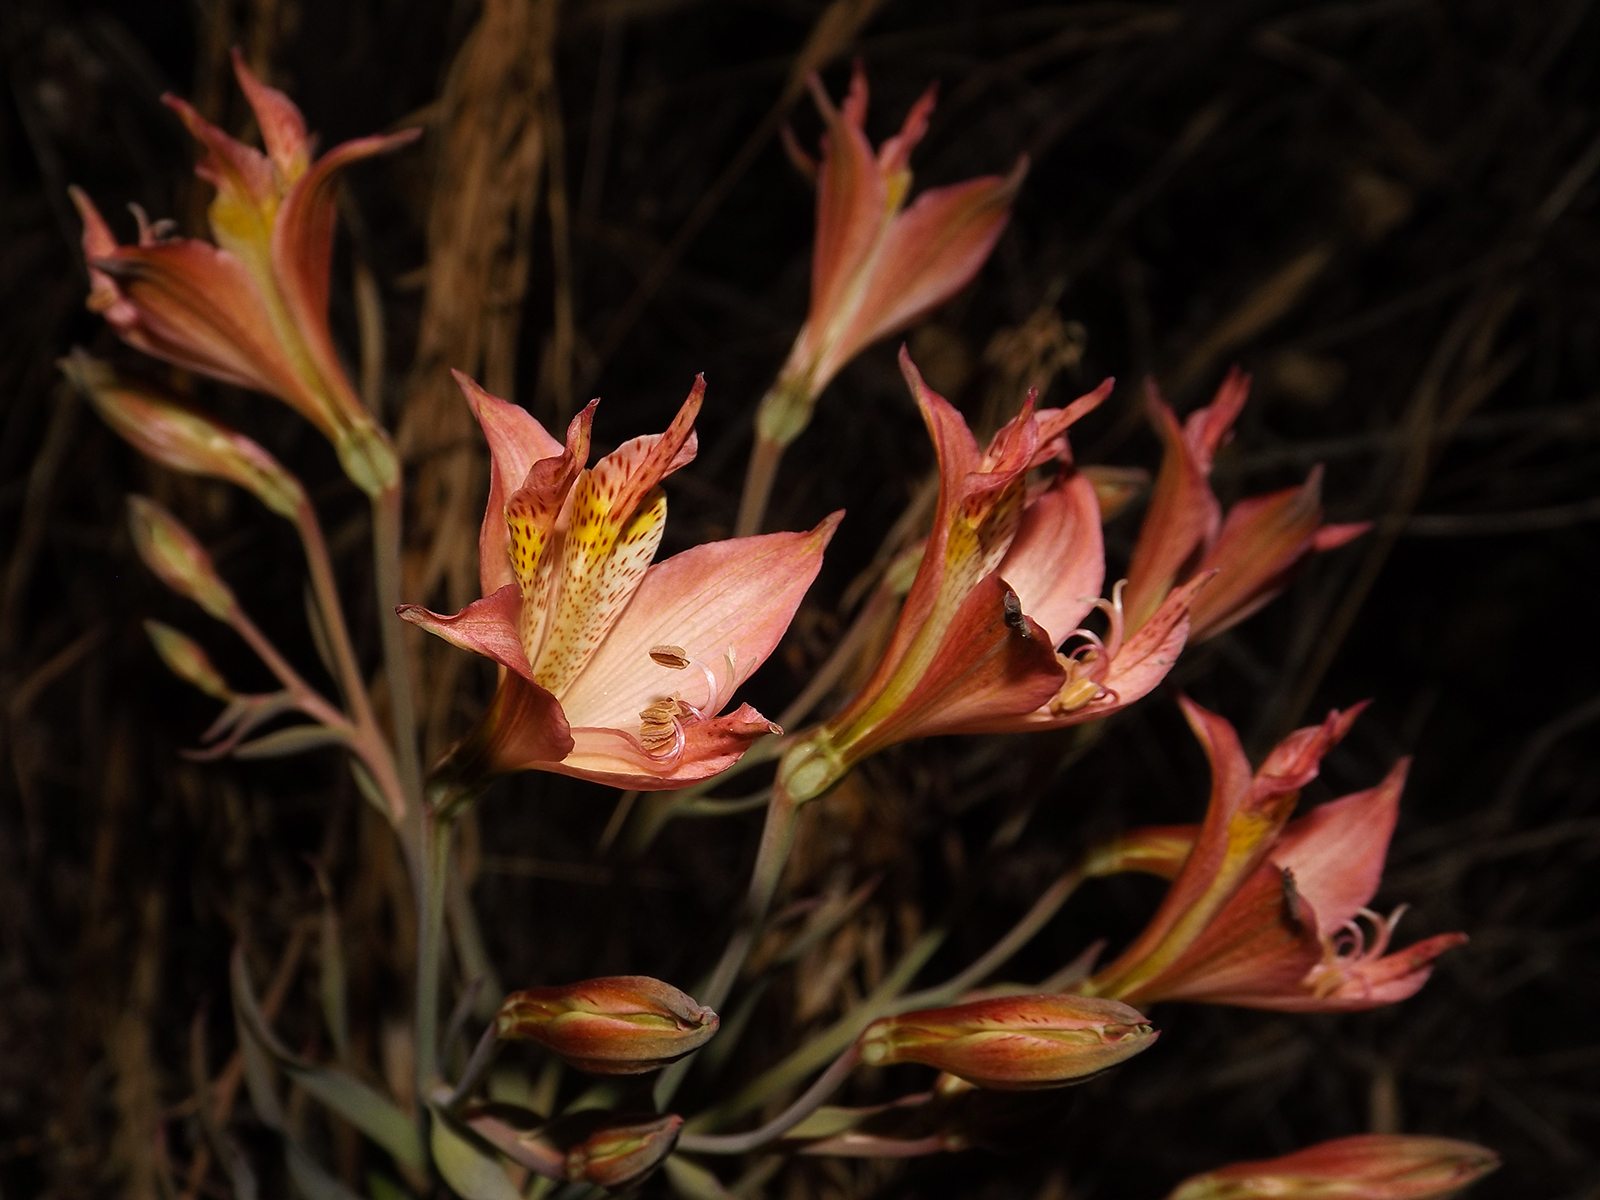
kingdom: Plantae
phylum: Tracheophyta
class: Liliopsida
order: Liliales
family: Alstroemeriaceae
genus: Alstroemeria
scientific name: Alstroemeria marticorenae
